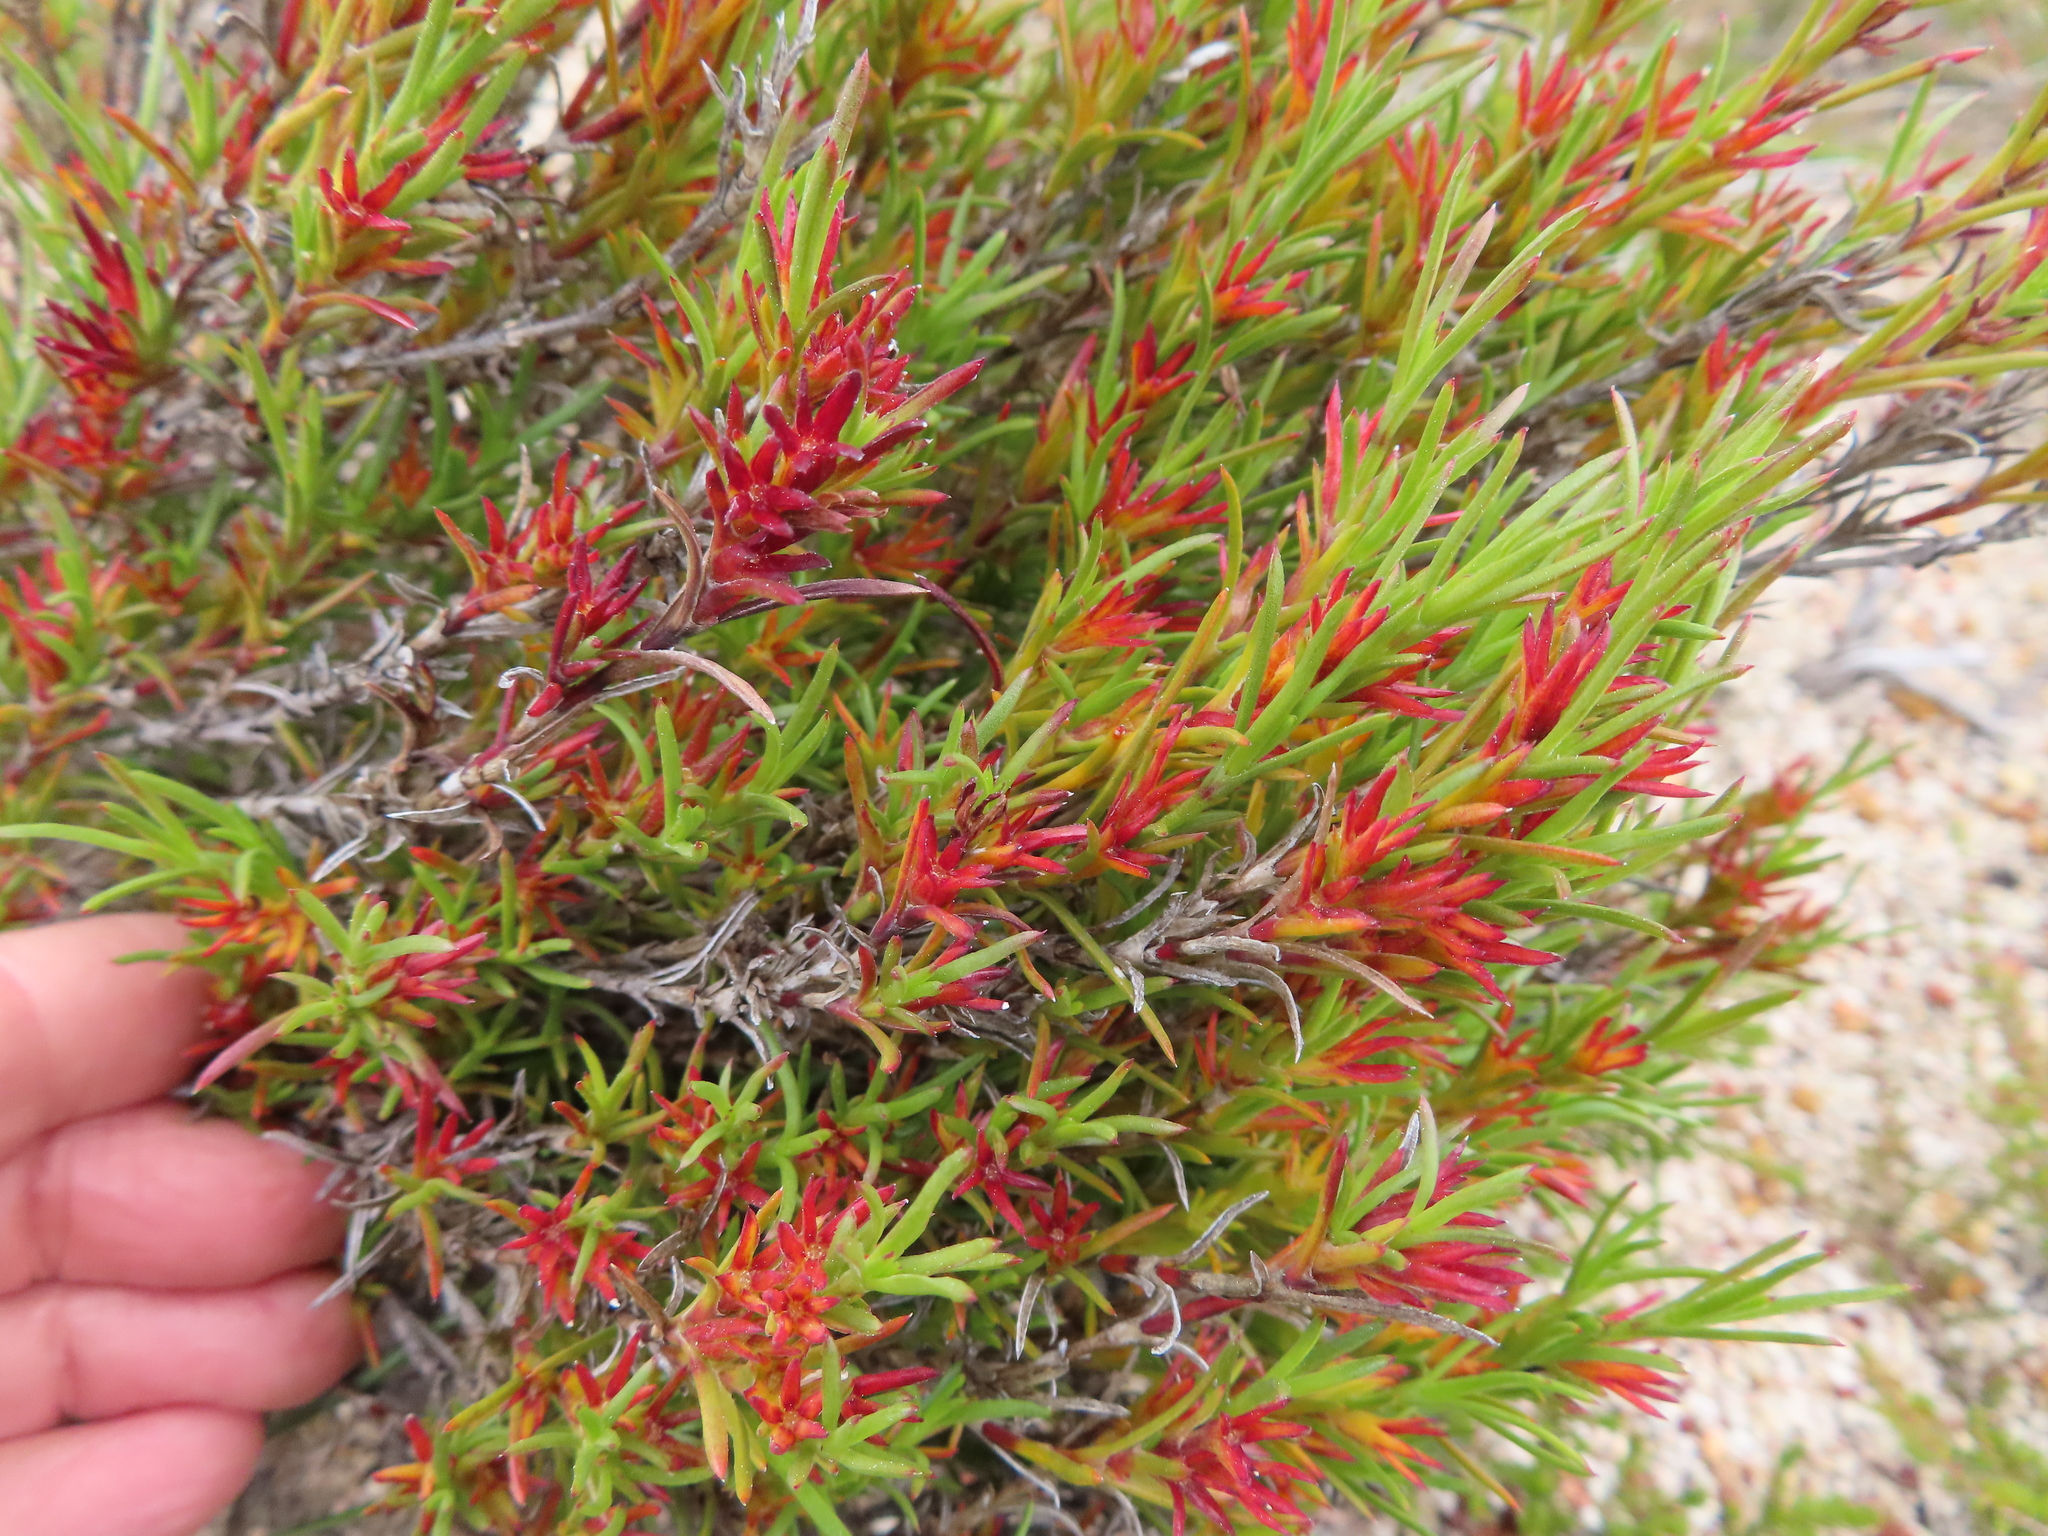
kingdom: Plantae
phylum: Tracheophyta
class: Magnoliopsida
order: Gentianales
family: Rubiaceae
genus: Carpacoce
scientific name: Carpacoce vaginellata
